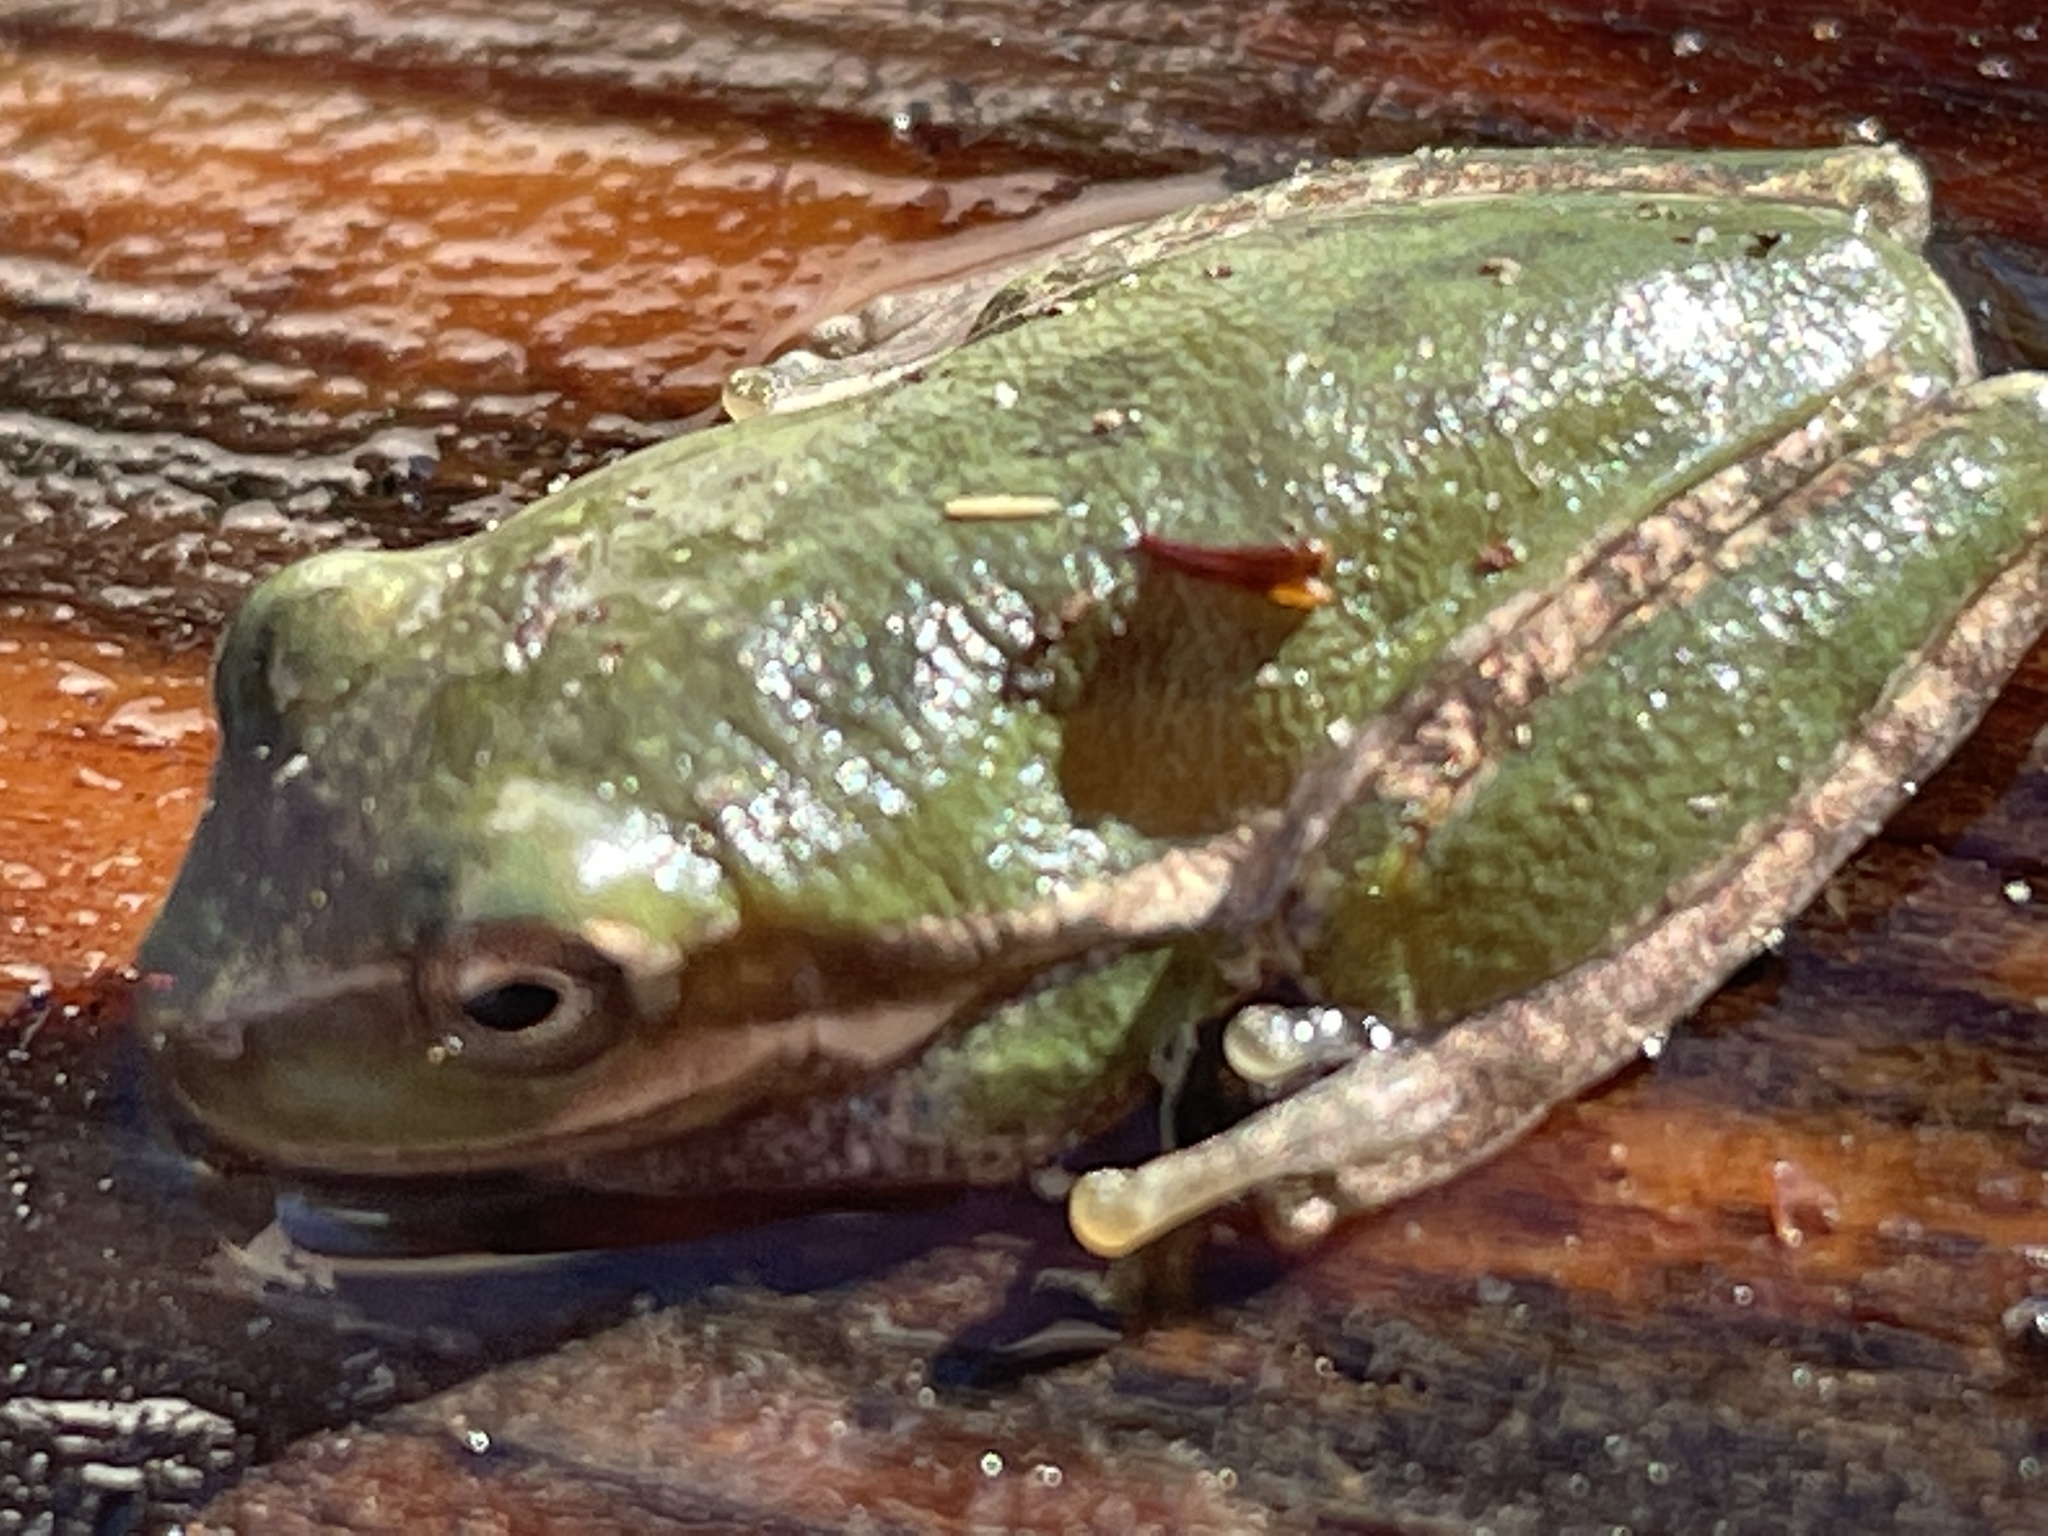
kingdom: Animalia
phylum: Chordata
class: Amphibia
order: Anura
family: Hylidae
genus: Dryophytes
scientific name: Dryophytes squirellus
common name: Squirrel treefrog
